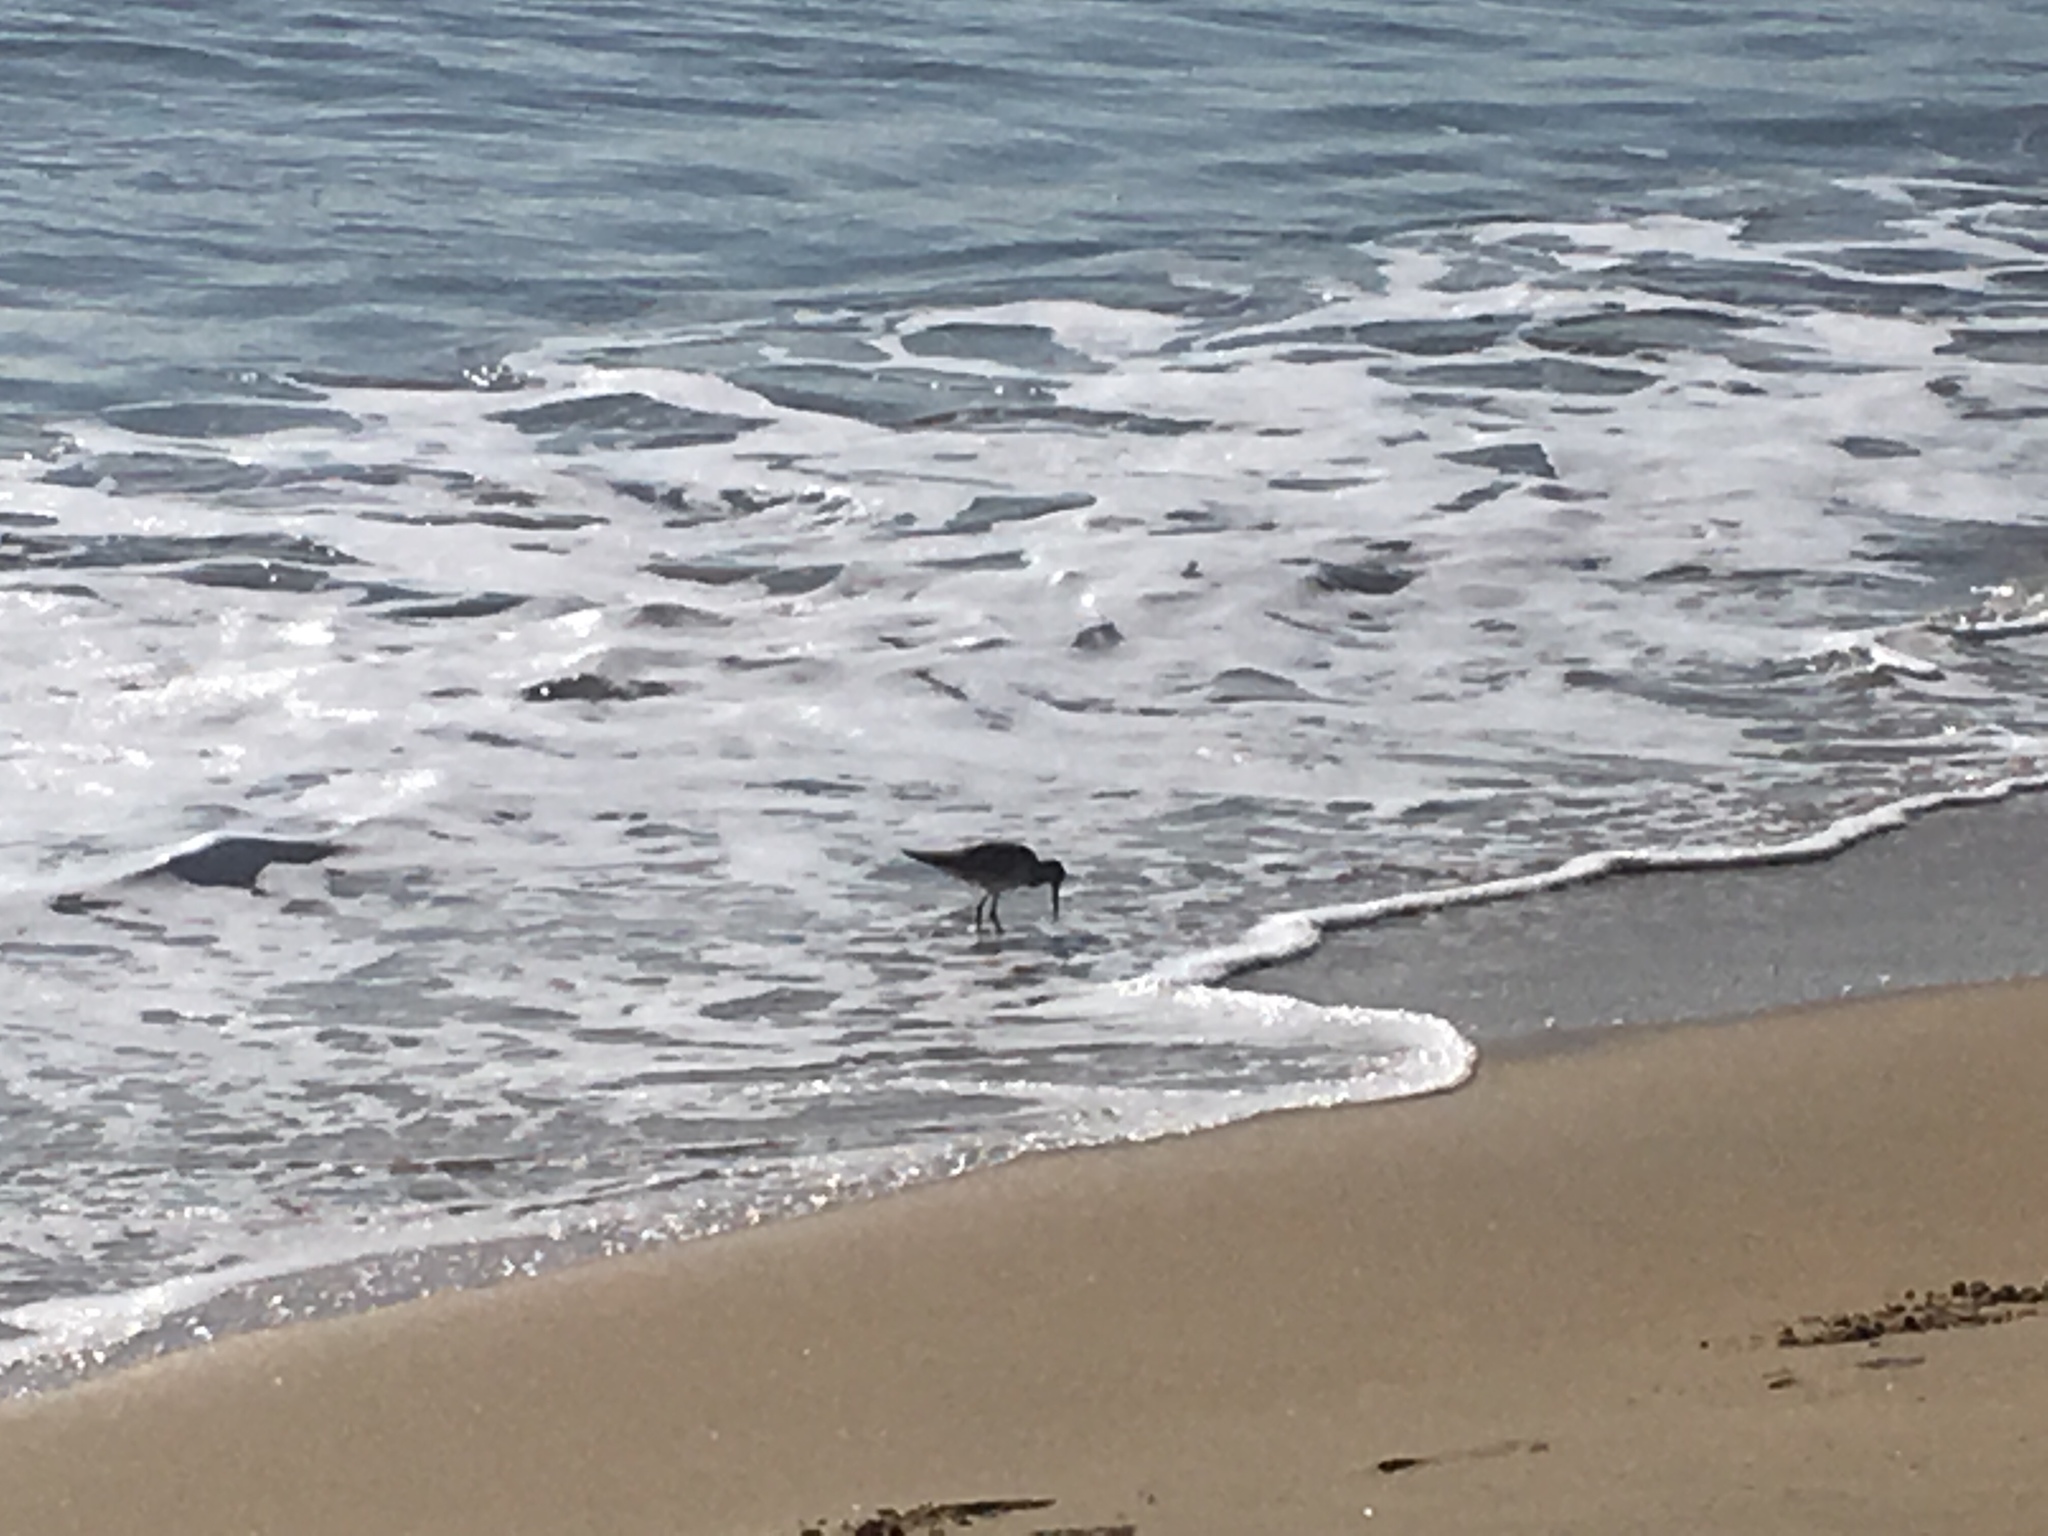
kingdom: Animalia
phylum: Chordata
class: Aves
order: Charadriiformes
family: Scolopacidae
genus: Tringa
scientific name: Tringa semipalmata
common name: Willet
